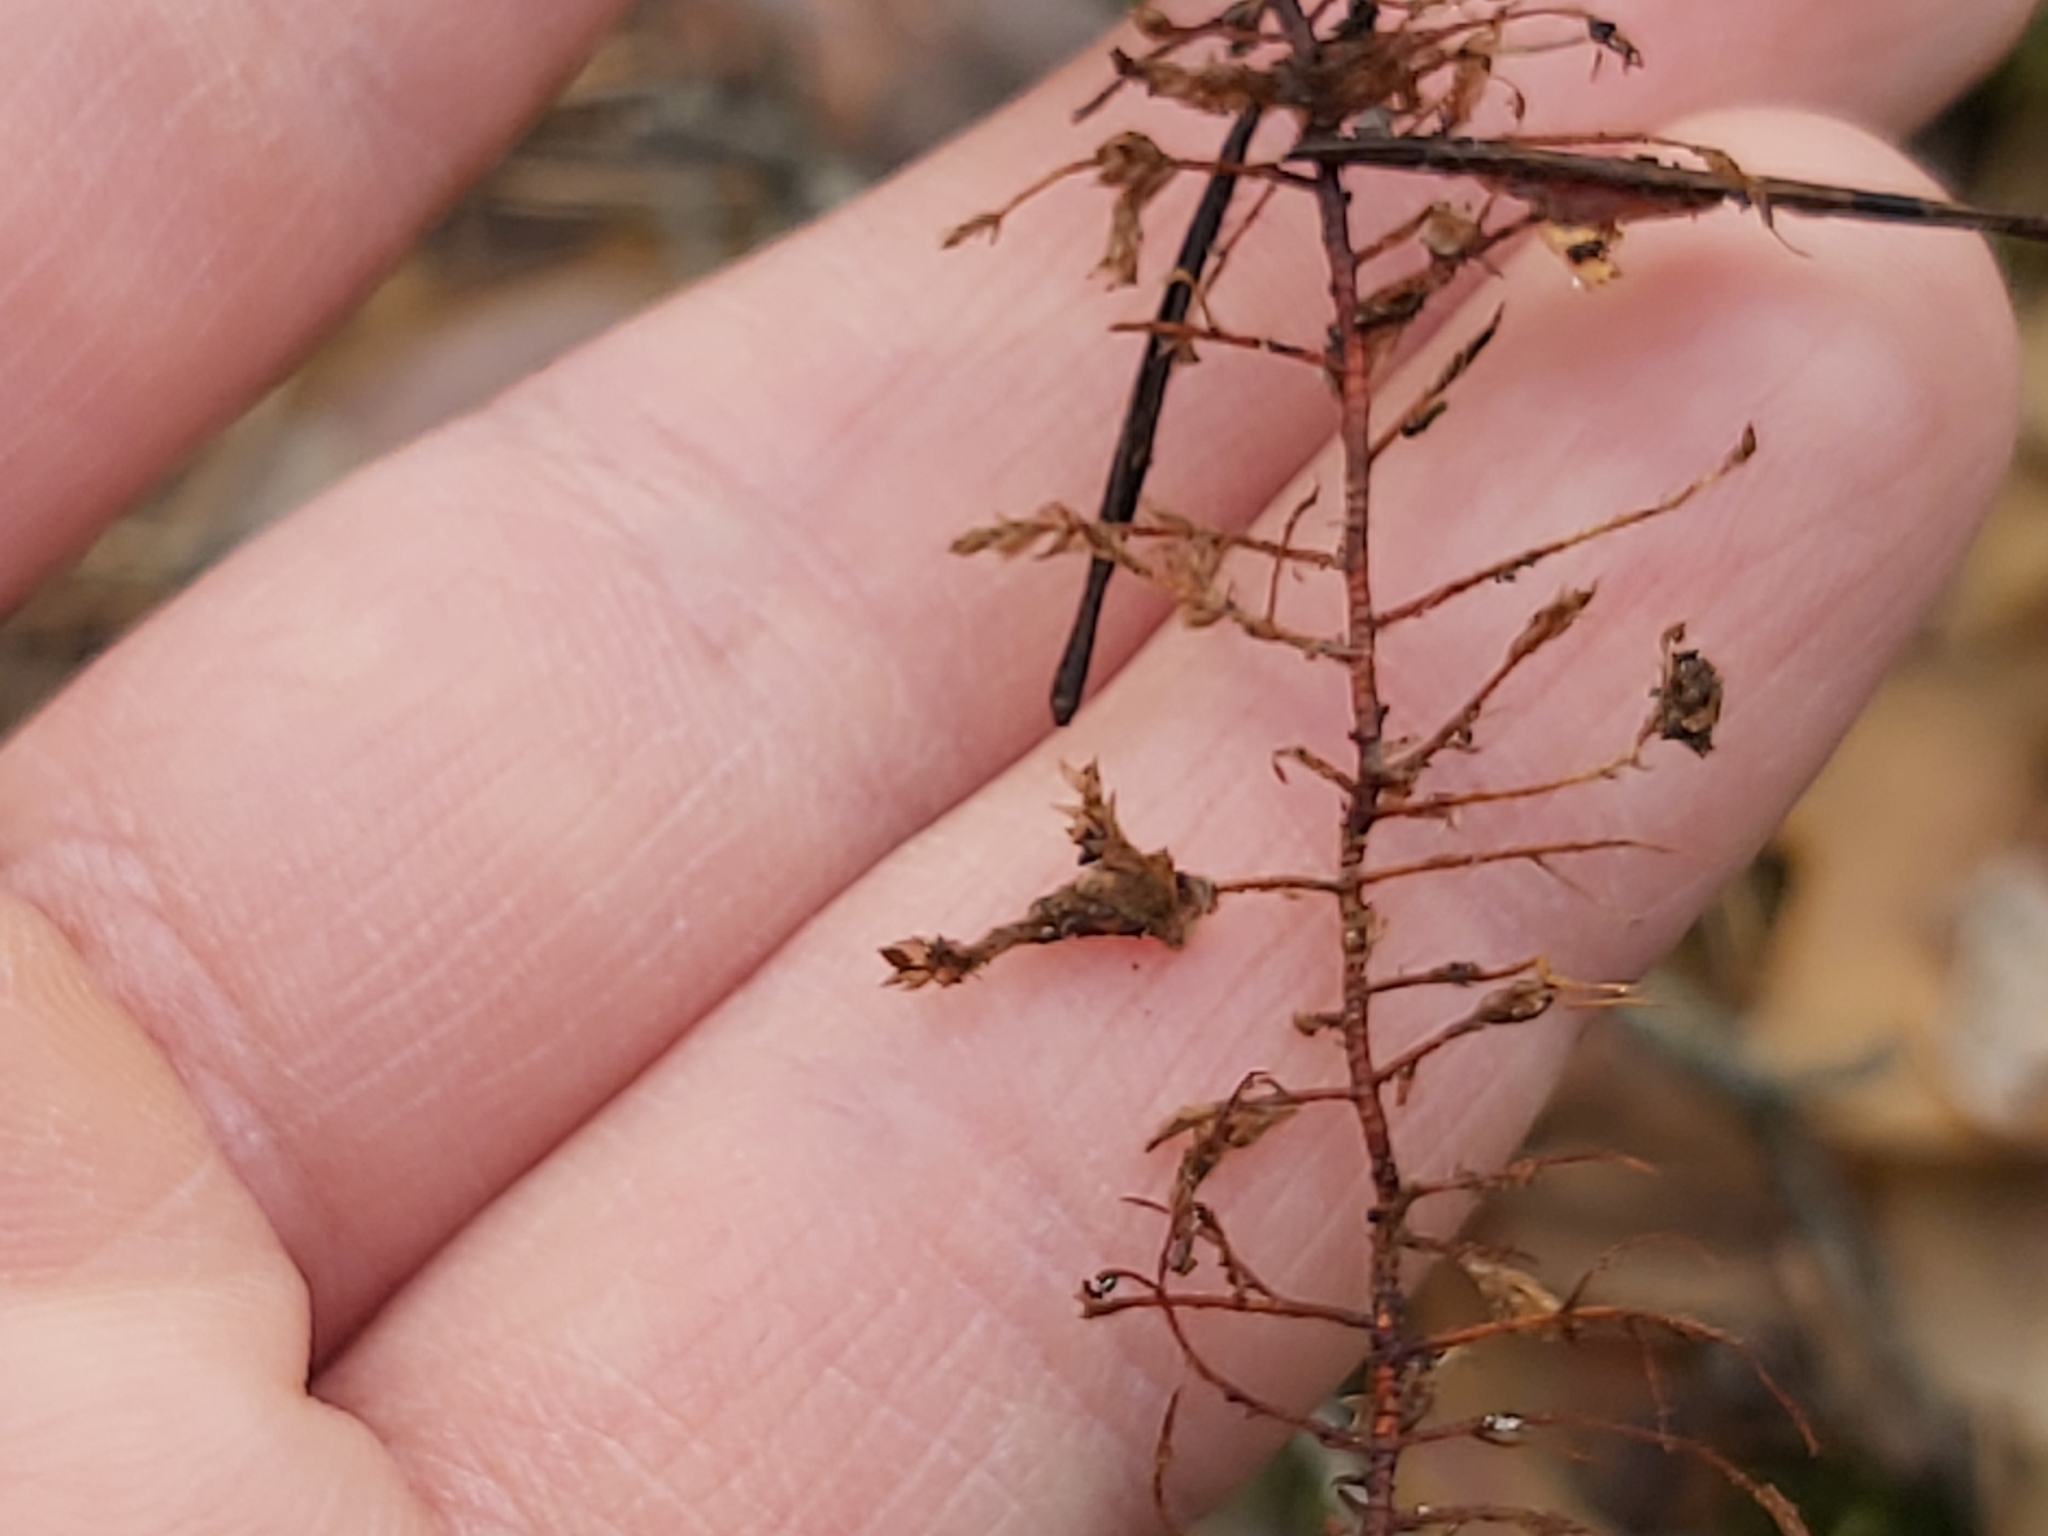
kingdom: Plantae
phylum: Bryophyta
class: Bryopsida
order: Hypnales
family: Hylocomiaceae
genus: Pleurozium
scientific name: Pleurozium schreberi
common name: Red-stemmed feather moss
